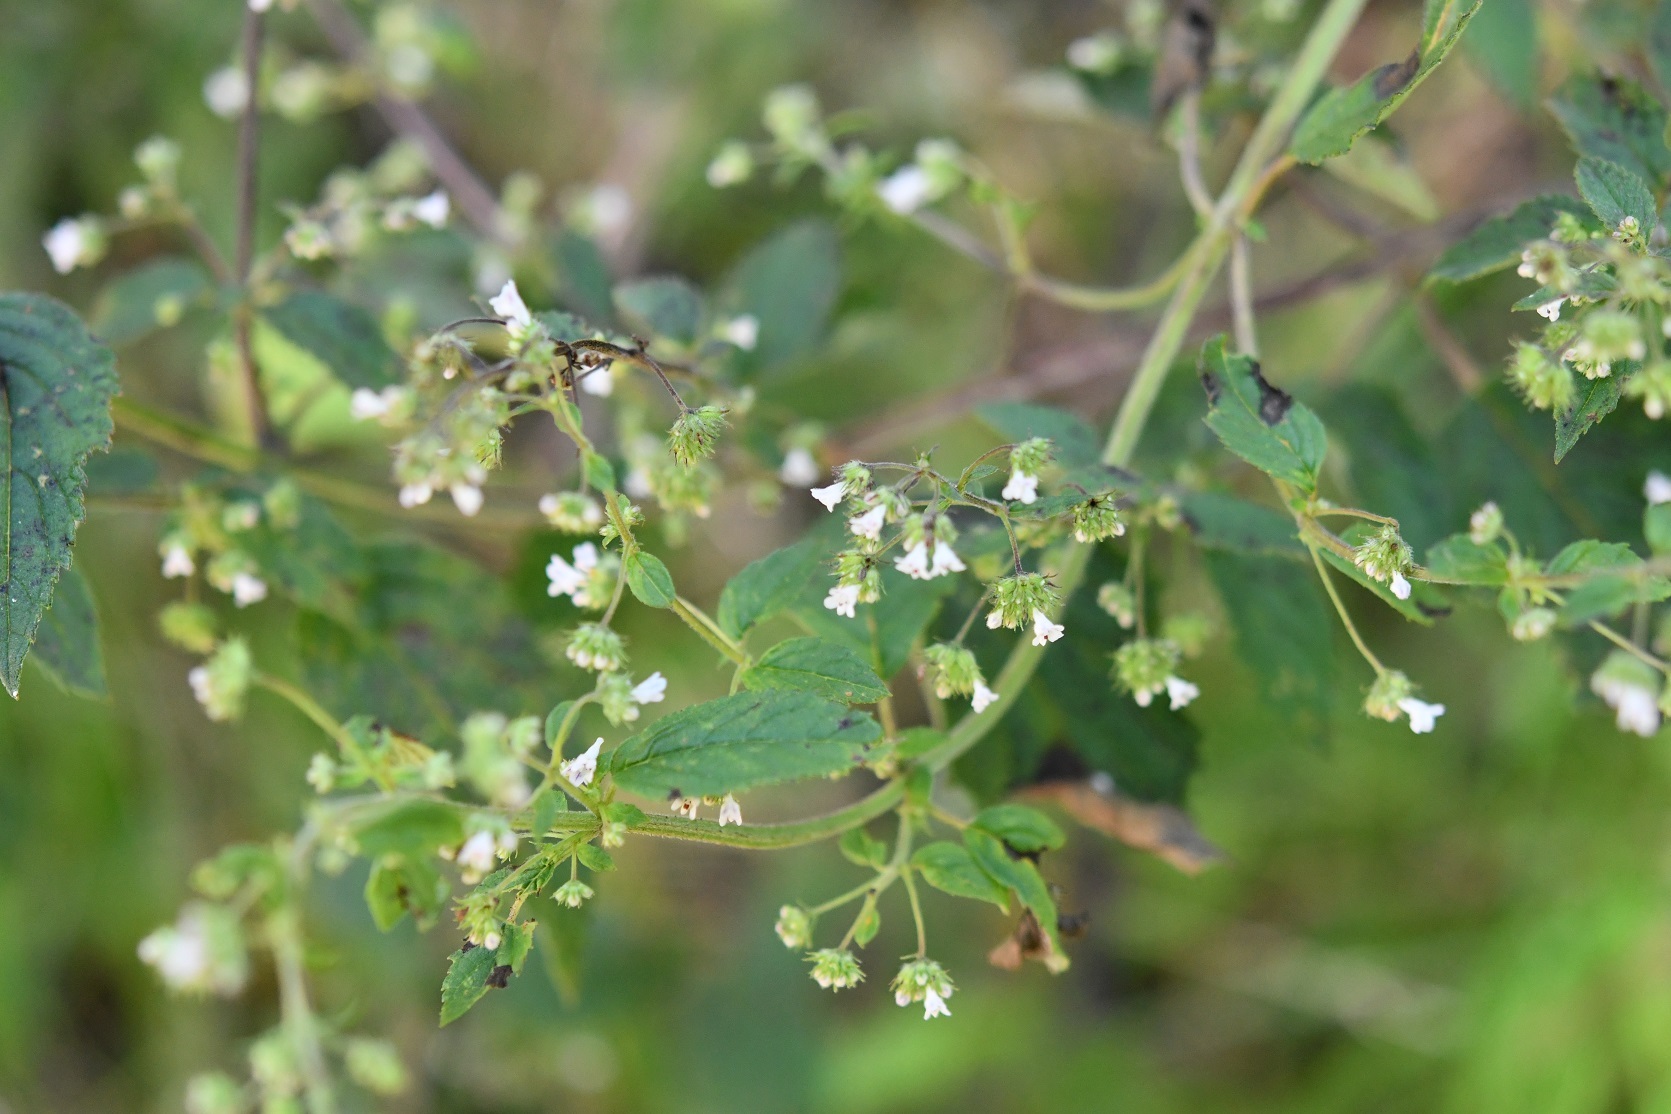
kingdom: Plantae
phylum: Tracheophyta
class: Magnoliopsida
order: Lamiales
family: Lamiaceae
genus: Mesosphaerum
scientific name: Mesosphaerum urticoides
